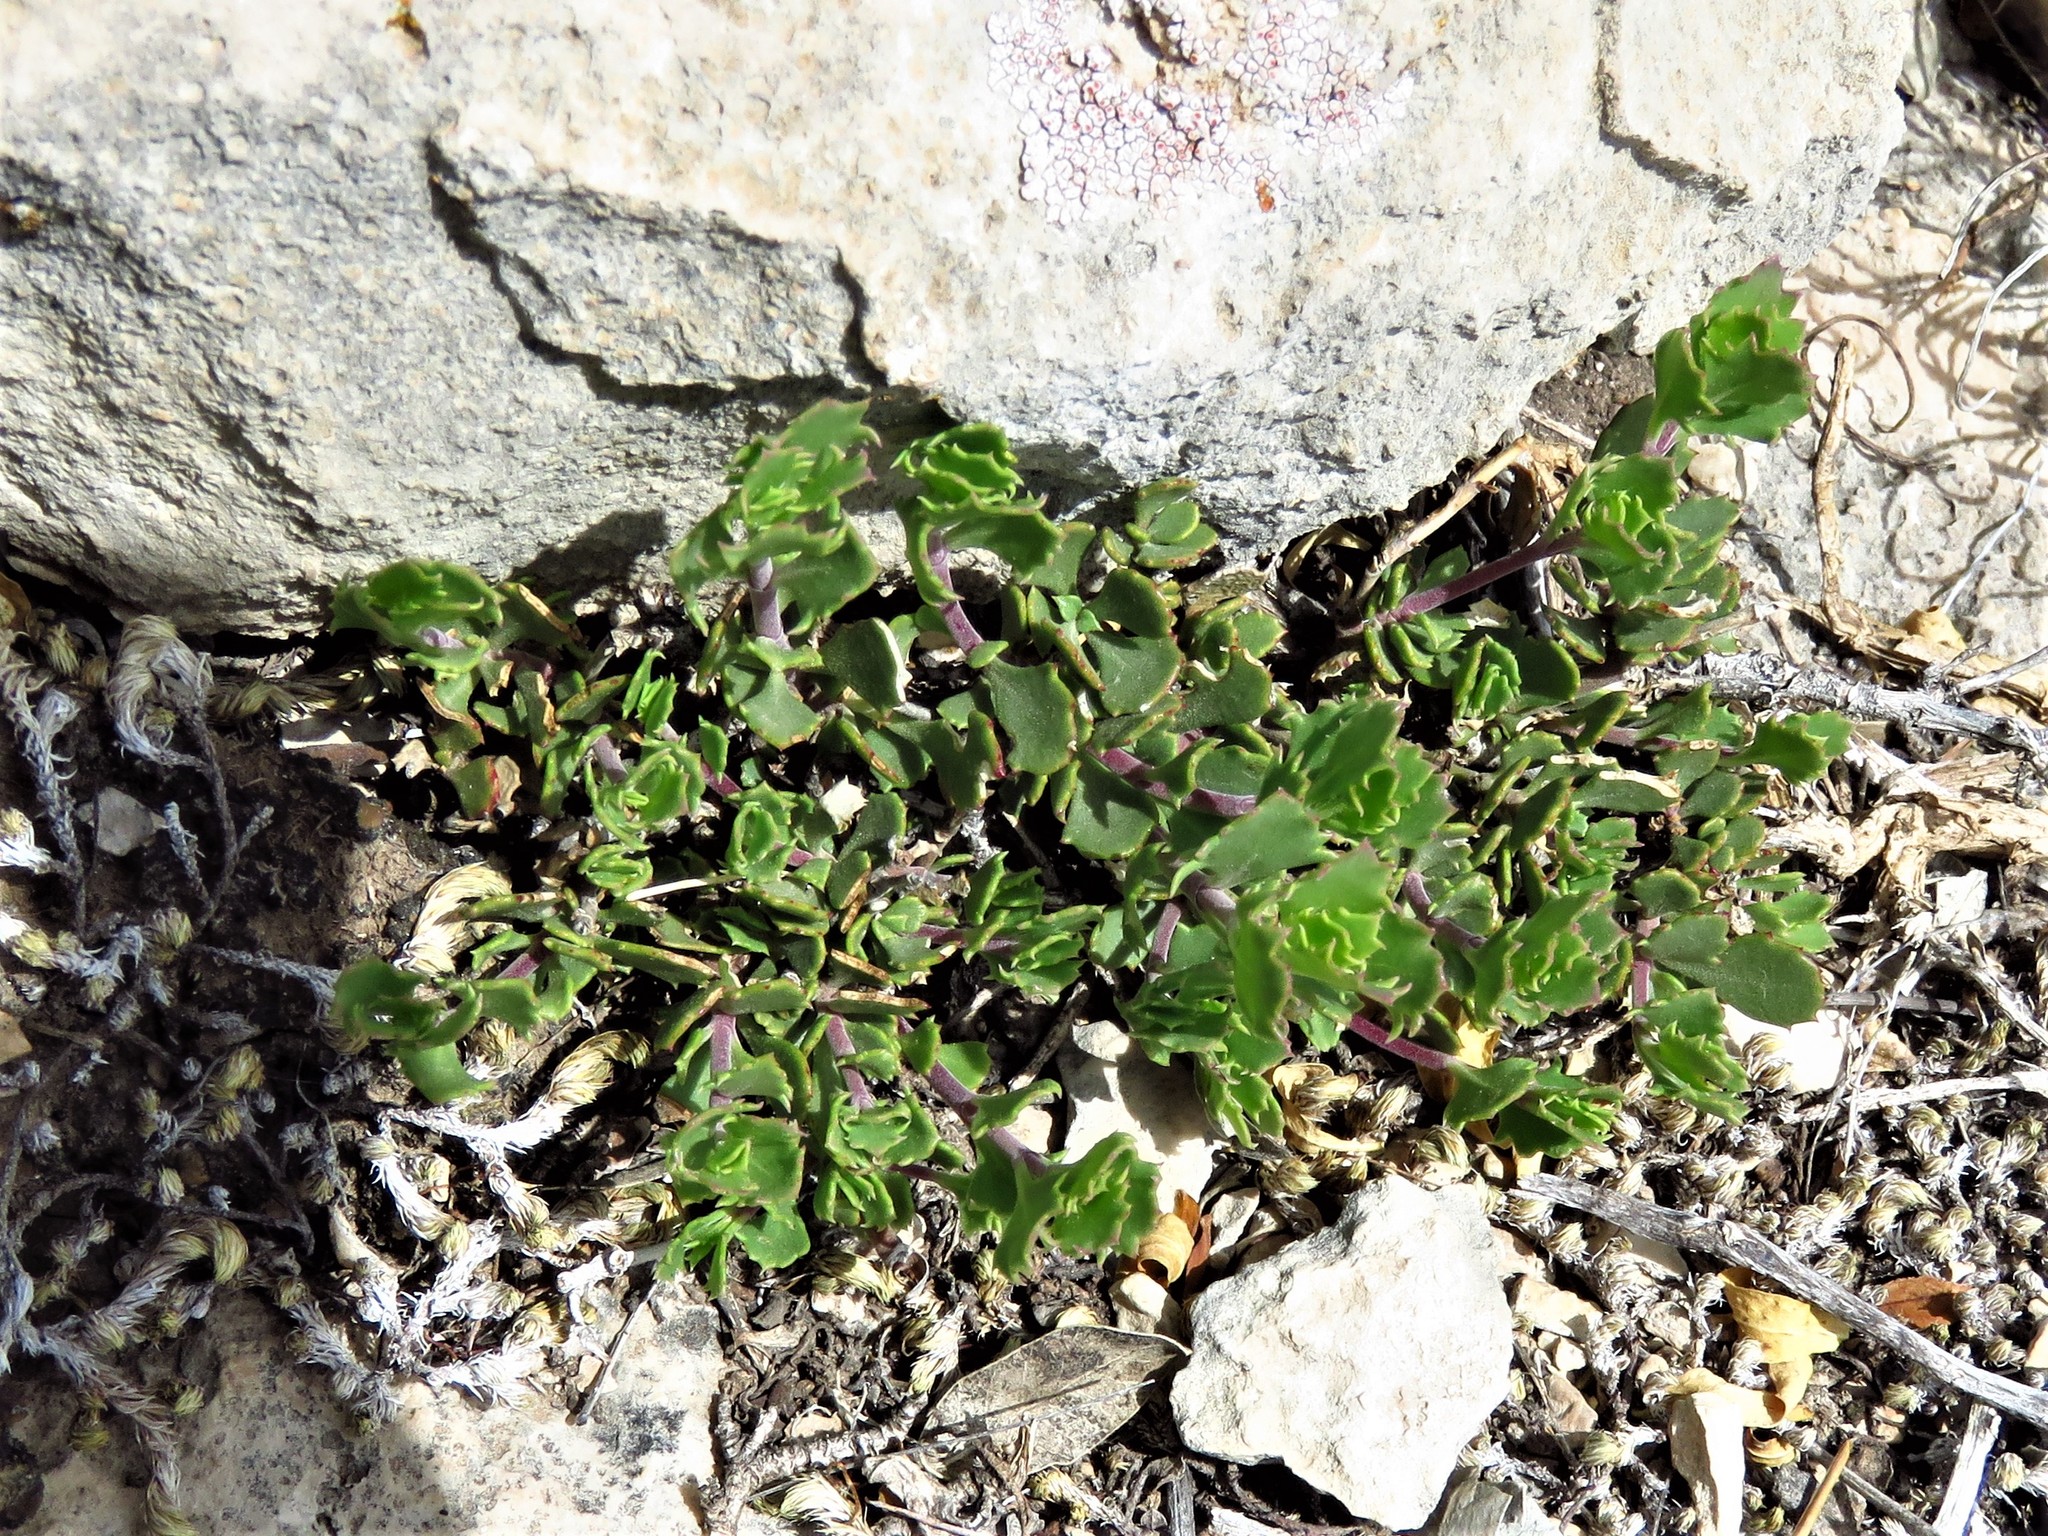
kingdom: Plantae
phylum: Tracheophyta
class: Magnoliopsida
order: Lamiales
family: Plantaginaceae
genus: Penstemon
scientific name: Penstemon baccharifolius
